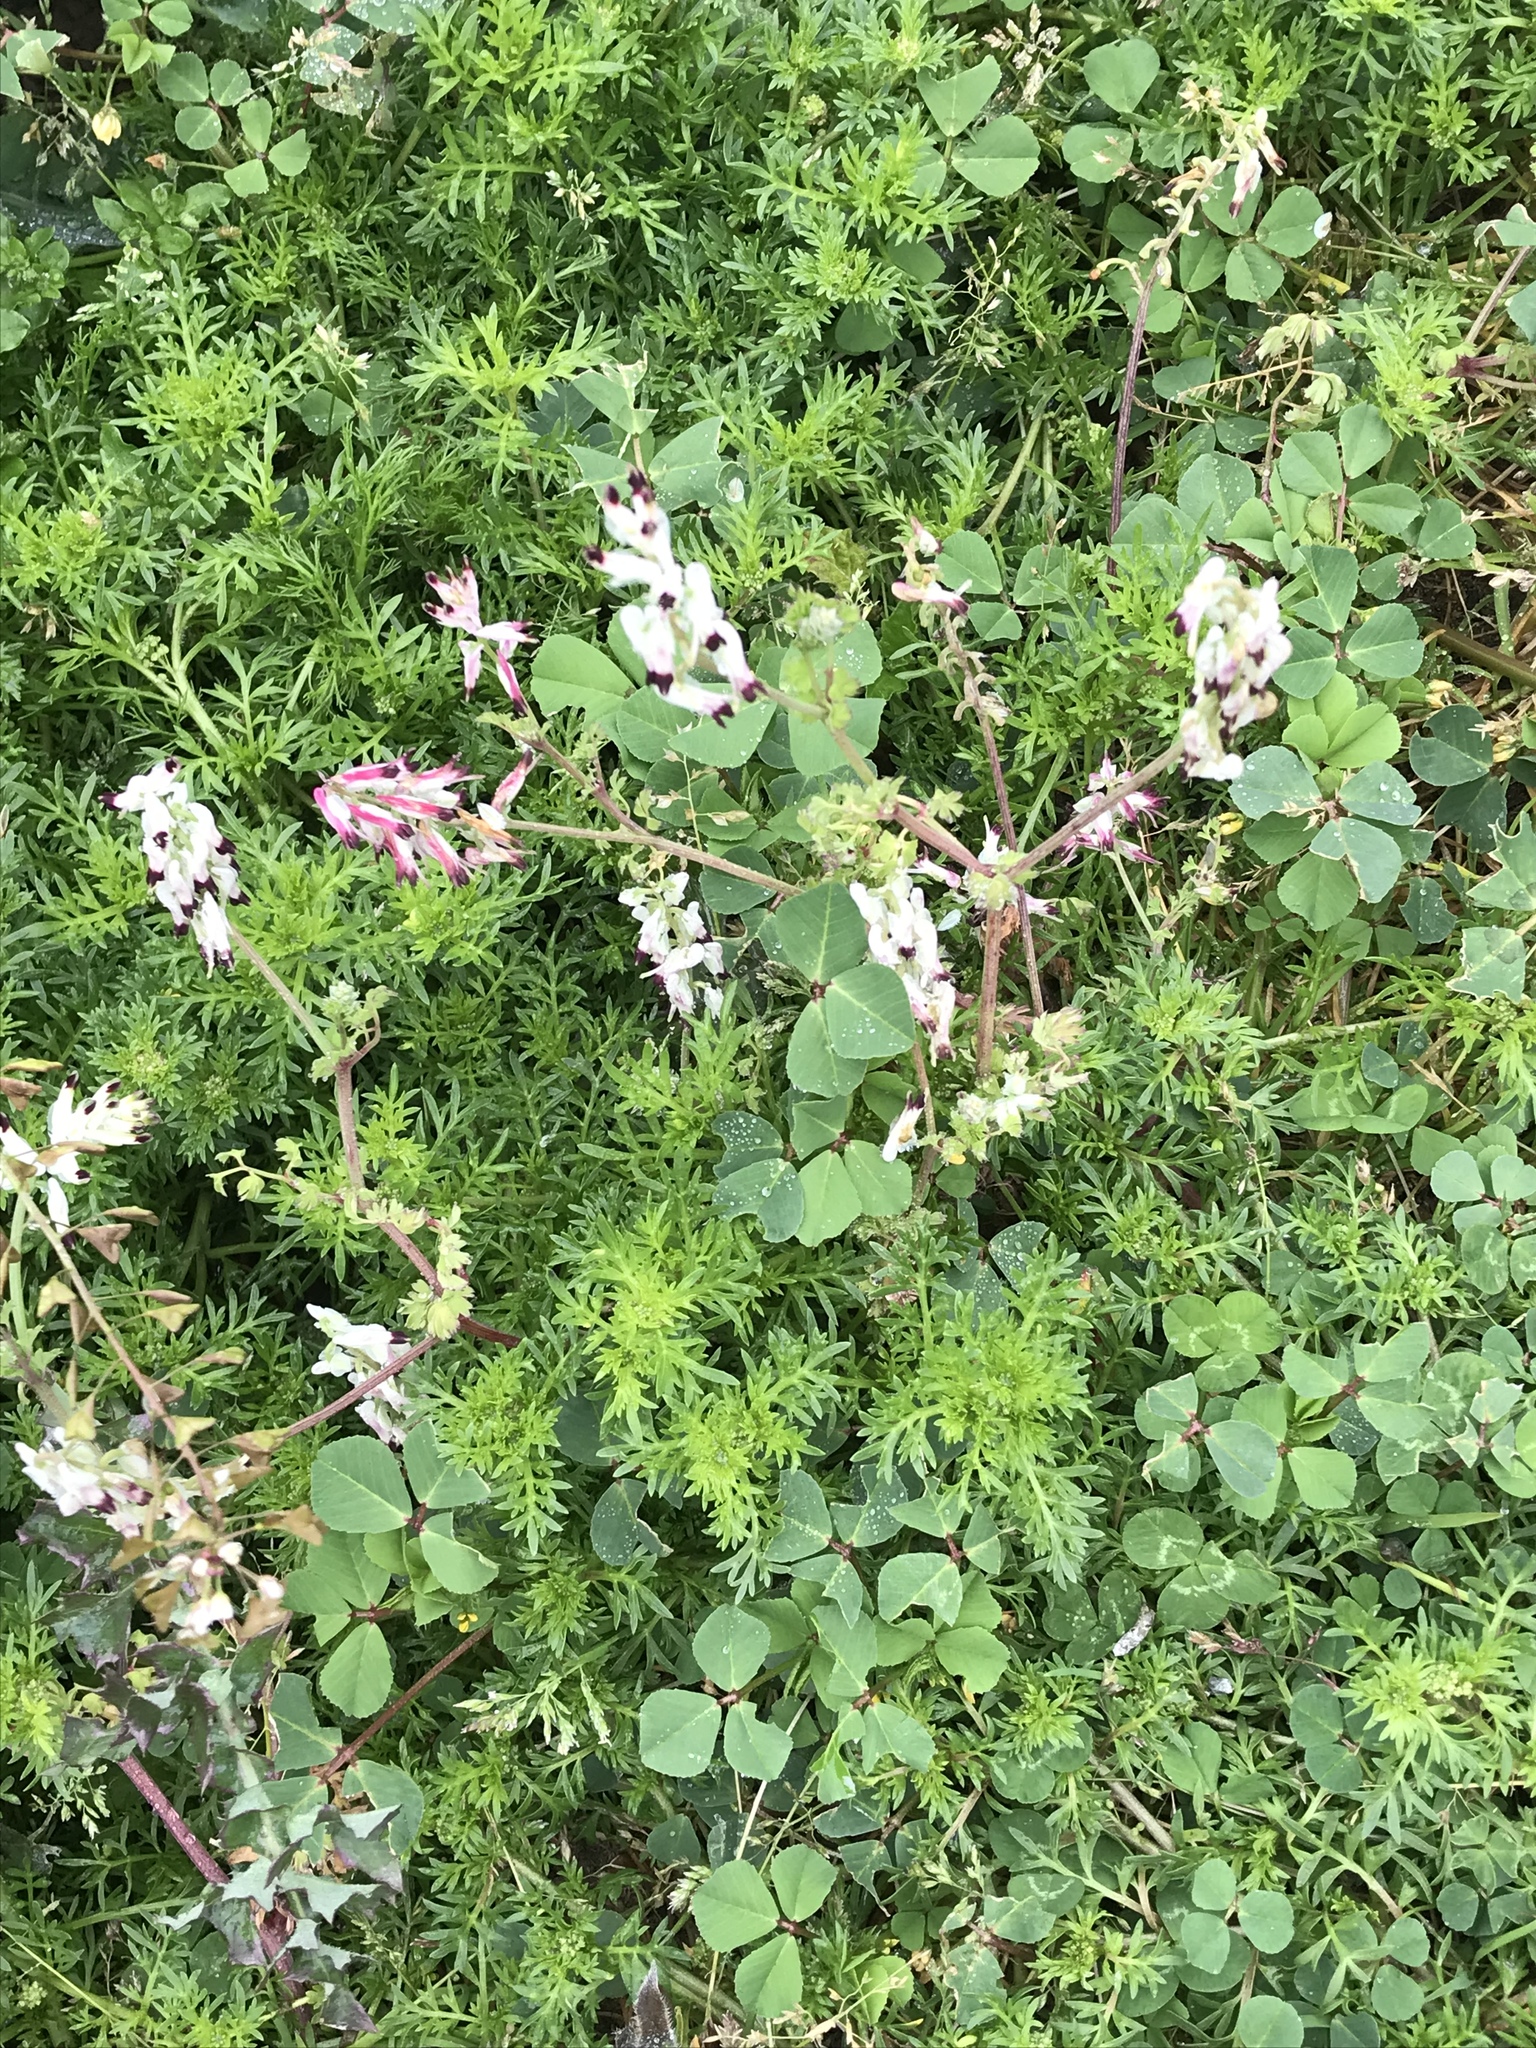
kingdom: Plantae
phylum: Tracheophyta
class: Magnoliopsida
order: Ranunculales
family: Papaveraceae
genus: Fumaria
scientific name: Fumaria capreolata
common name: White ramping-fumitory
